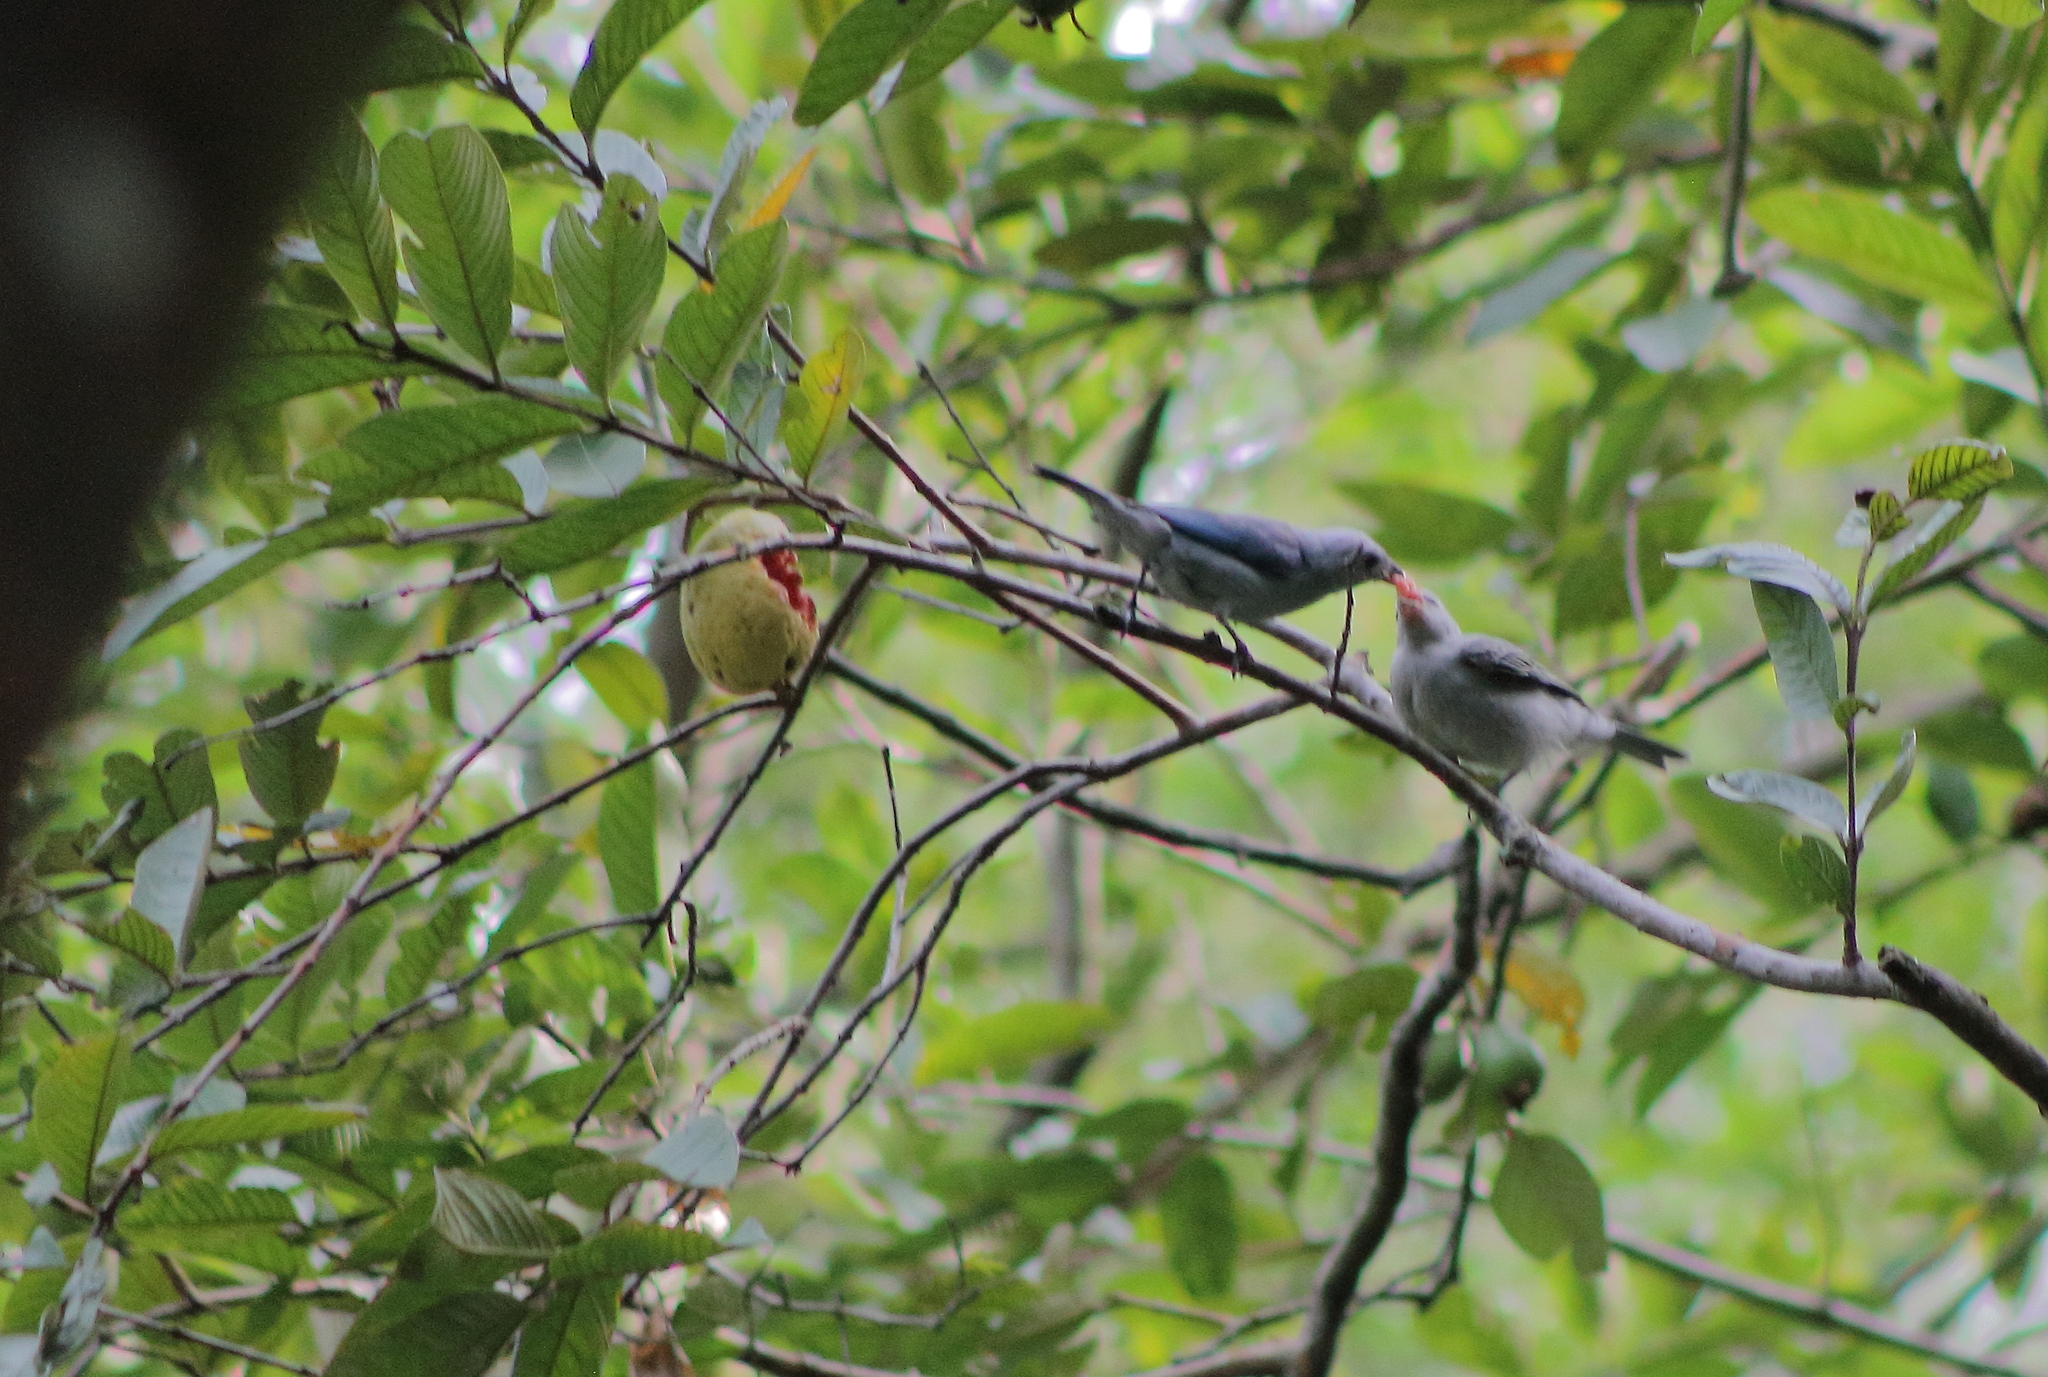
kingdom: Animalia
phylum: Chordata
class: Aves
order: Passeriformes
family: Thraupidae
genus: Thraupis
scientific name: Thraupis episcopus
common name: Blue-grey tanager
